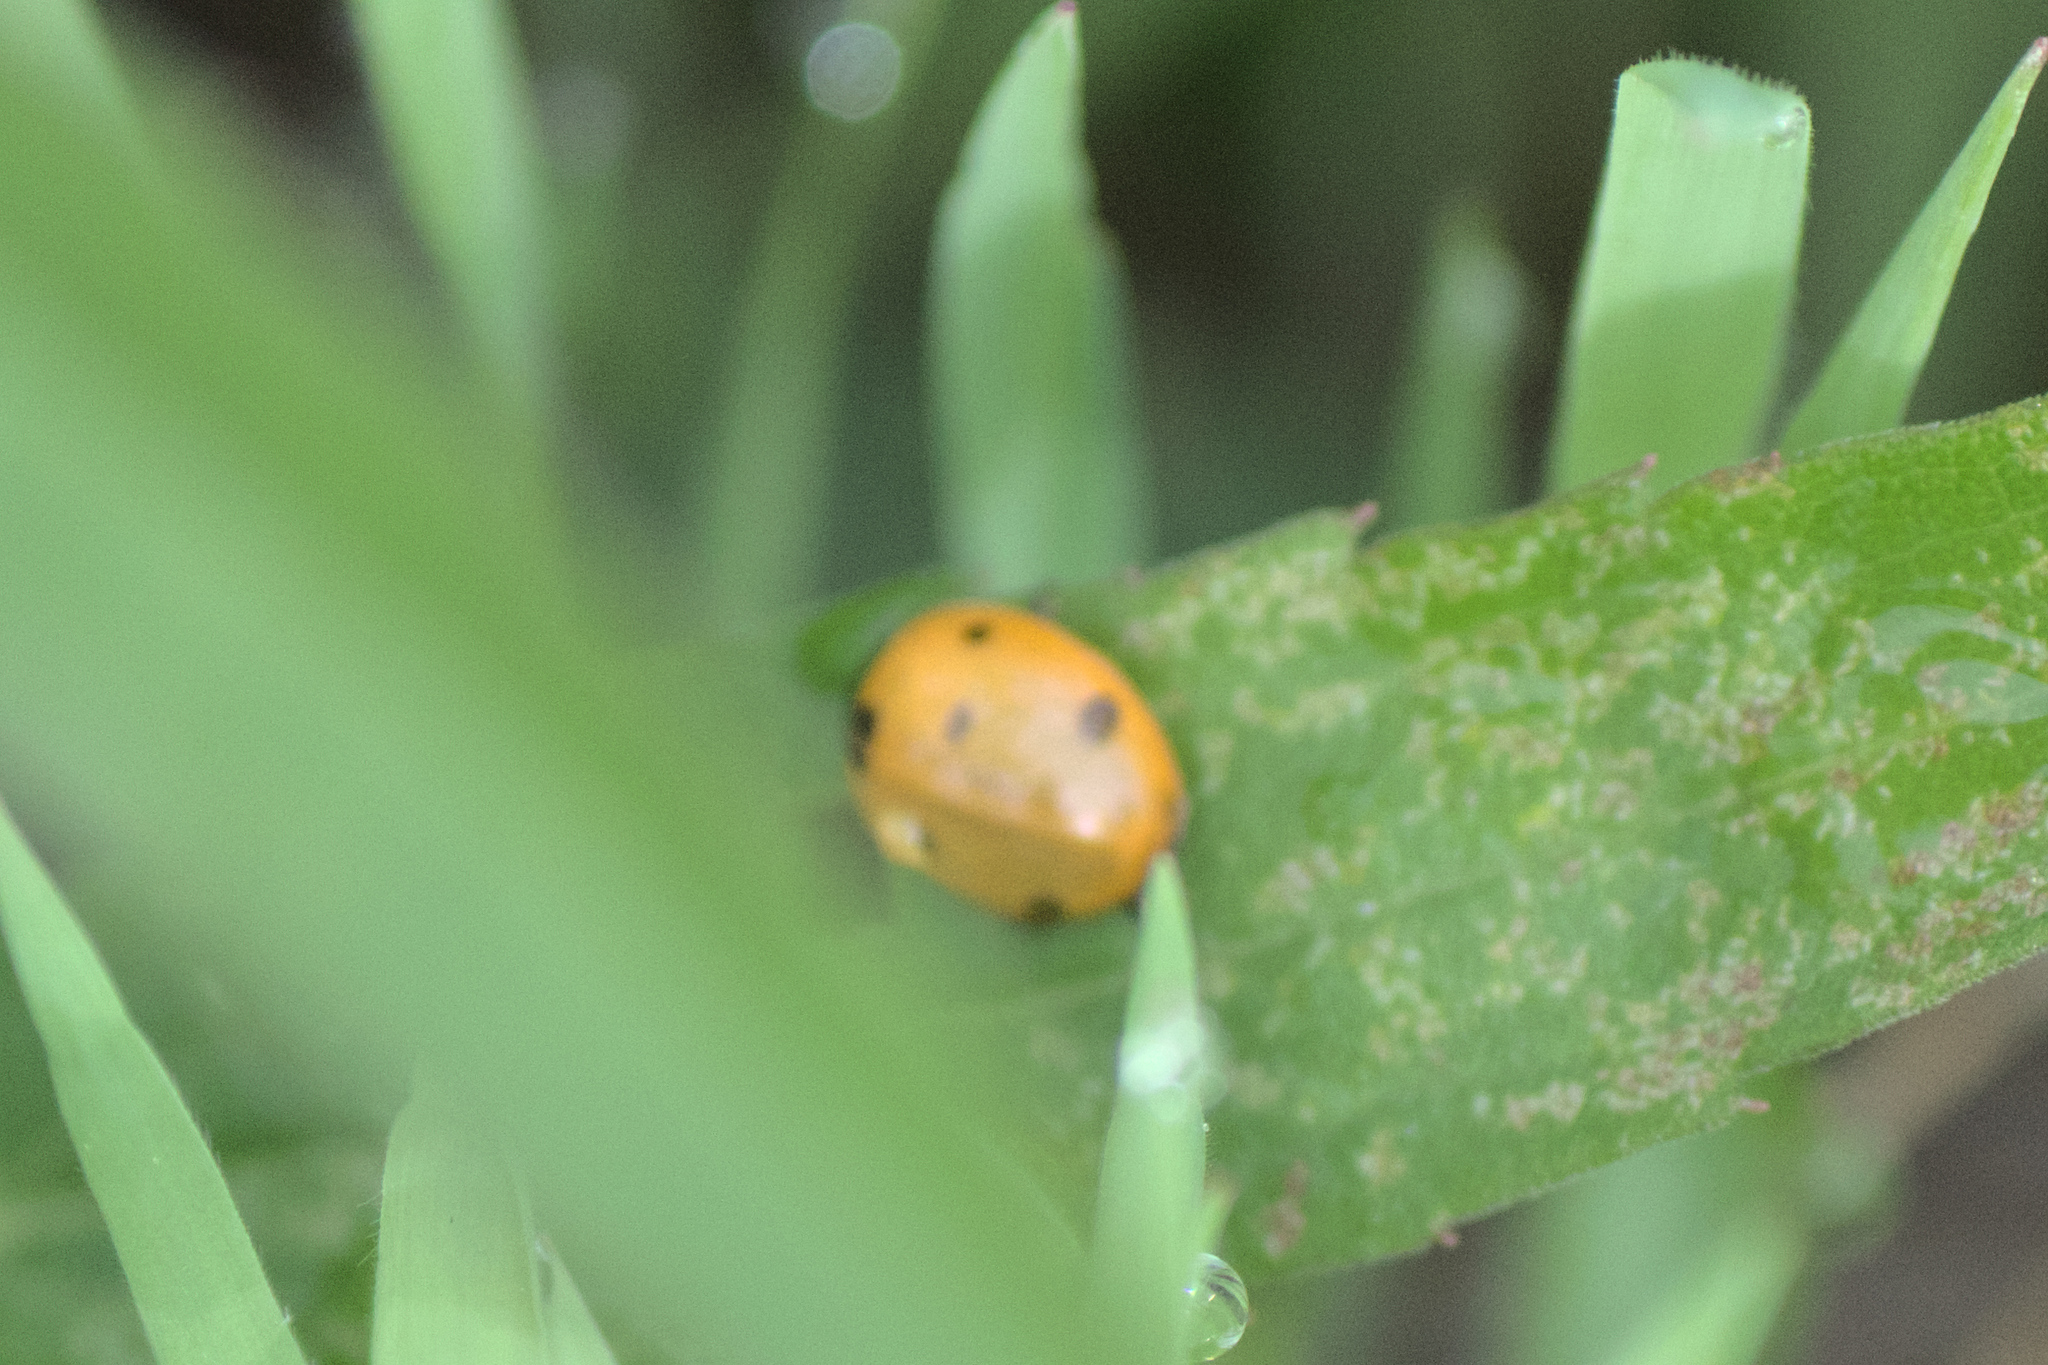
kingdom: Animalia
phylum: Arthropoda
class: Insecta
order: Coleoptera
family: Coccinellidae
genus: Coccinella
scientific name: Coccinella septempunctata
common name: Sevenspotted lady beetle
